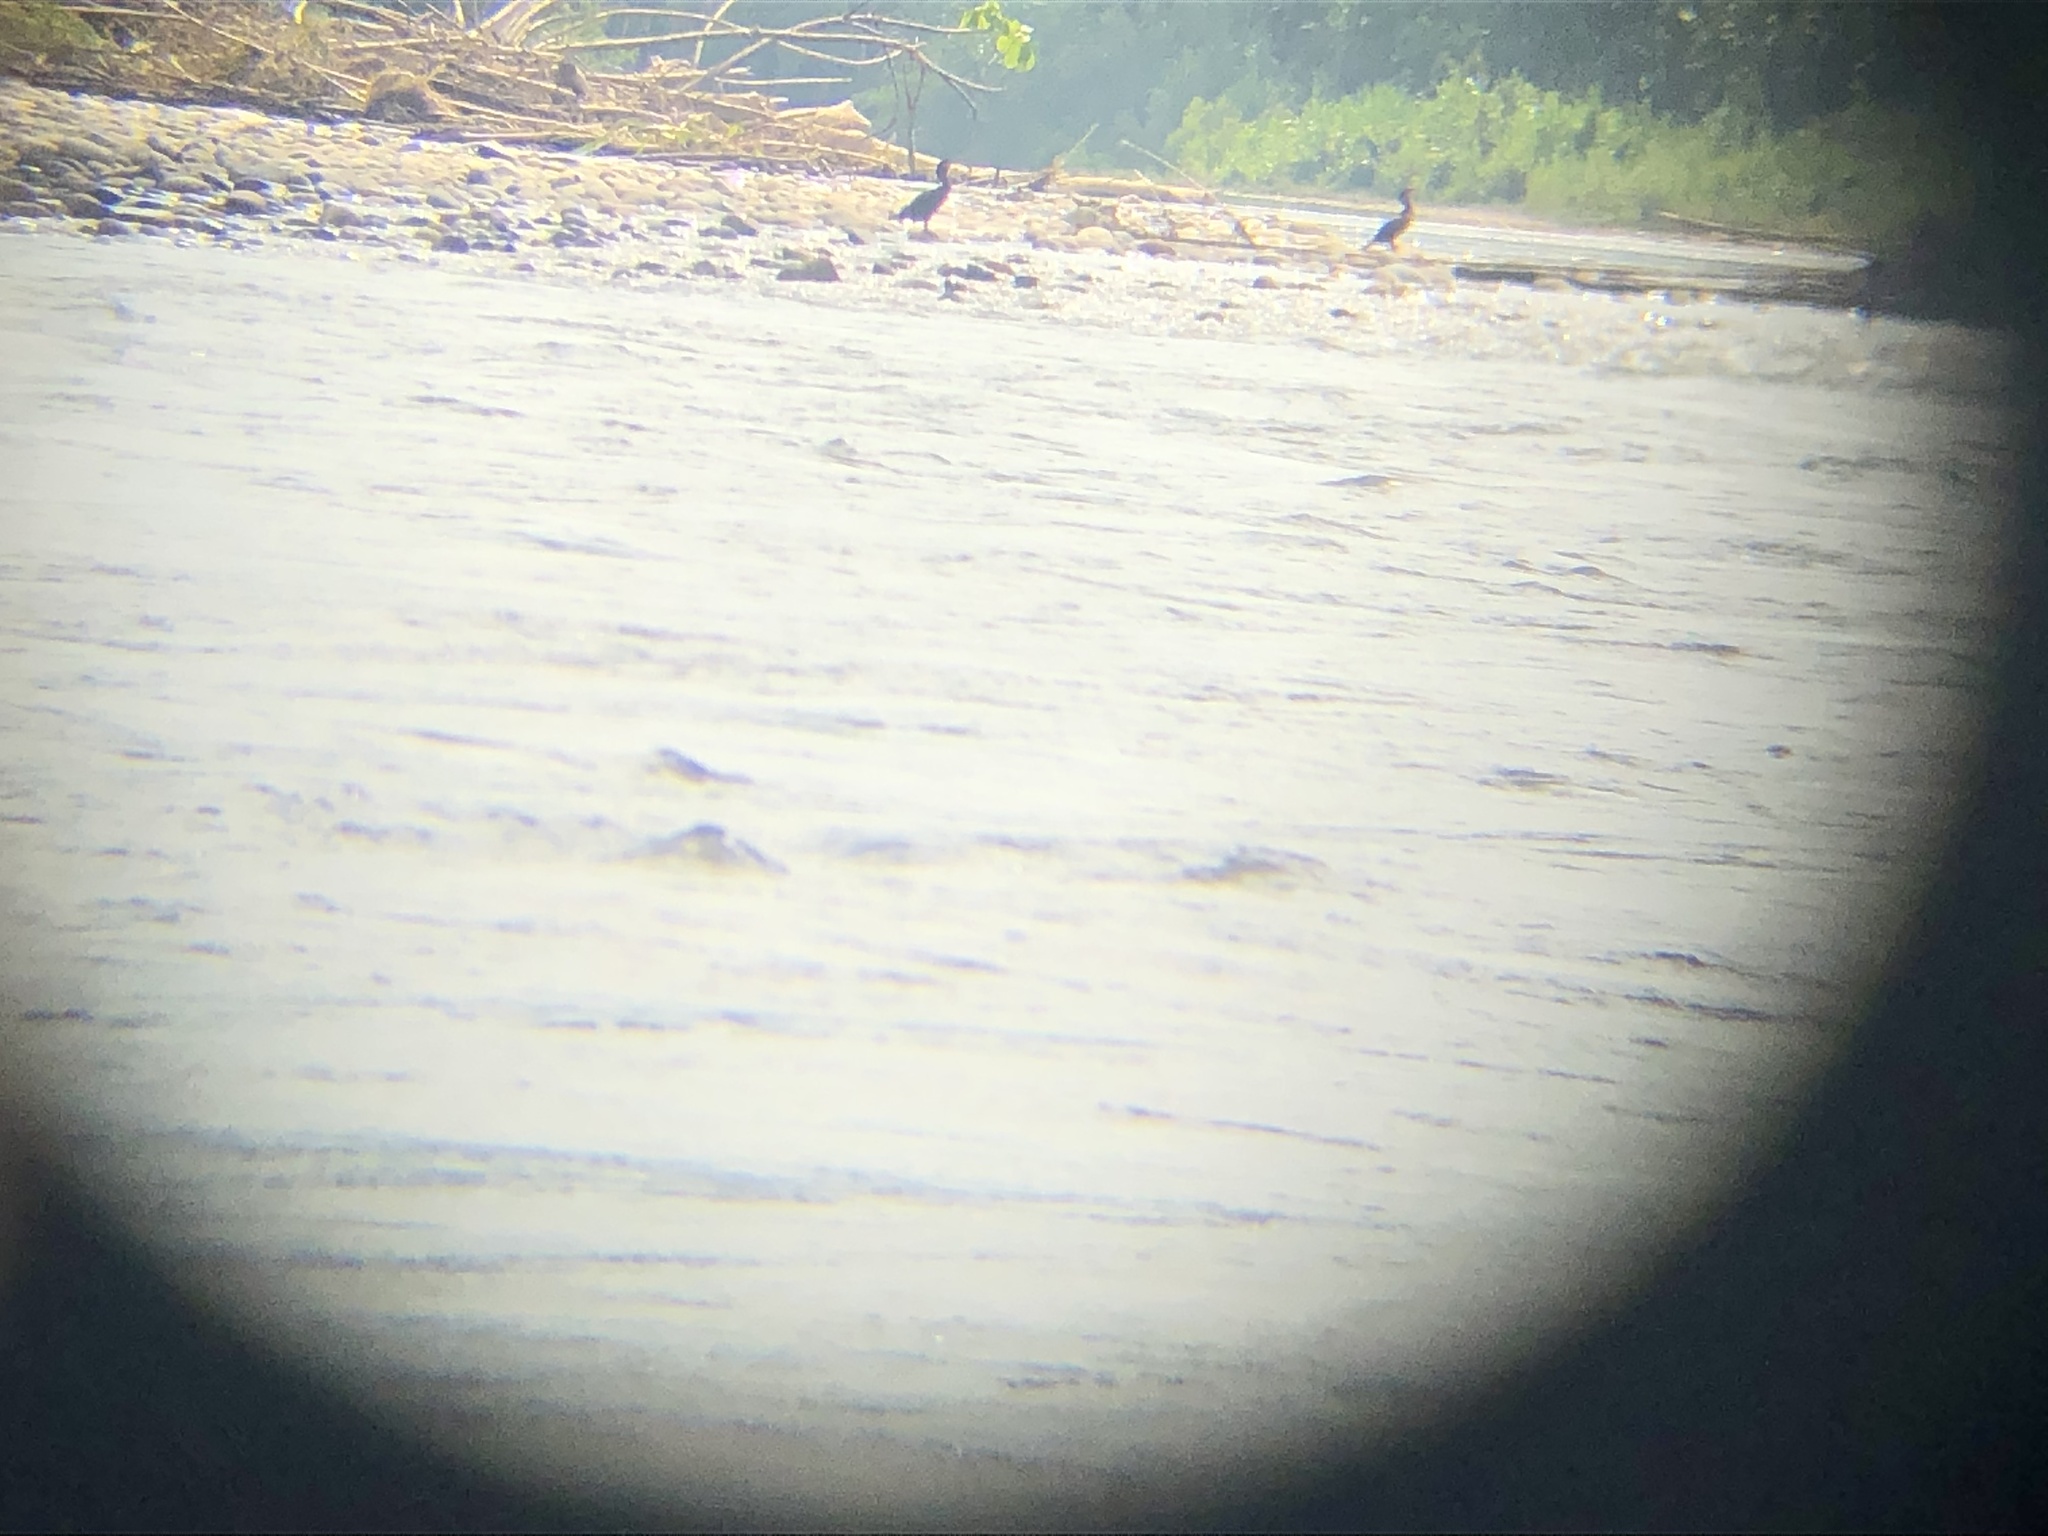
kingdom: Animalia
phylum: Chordata
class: Aves
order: Suliformes
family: Phalacrocoracidae
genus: Phalacrocorax
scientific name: Phalacrocorax brasilianus
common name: Neotropic cormorant
